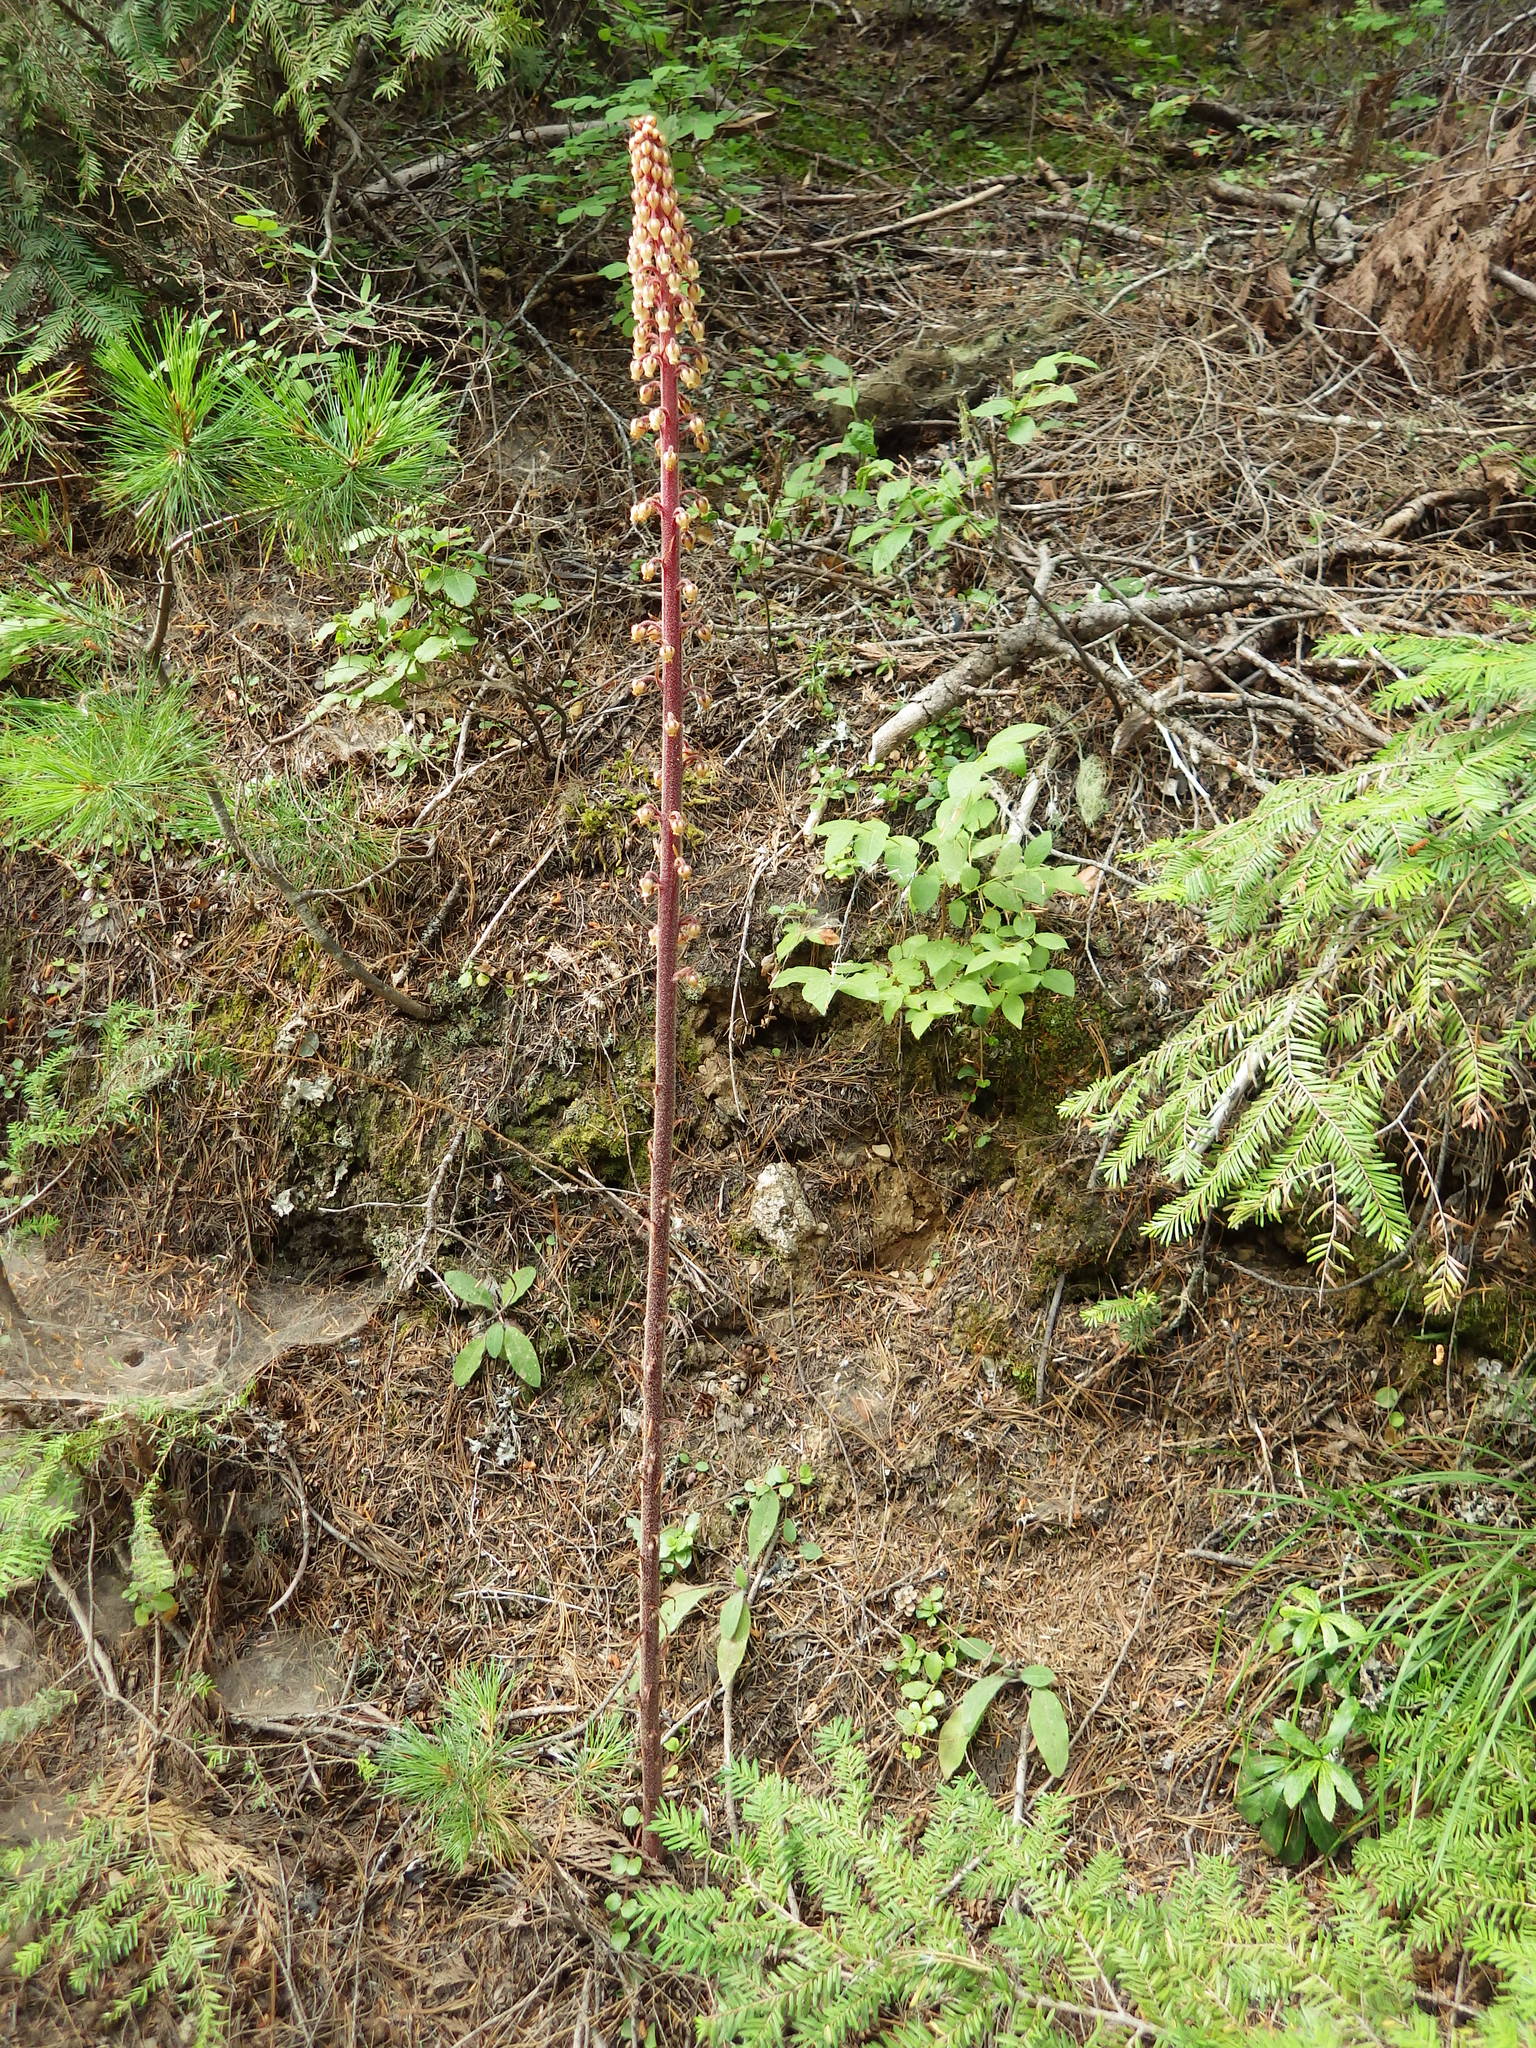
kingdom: Plantae
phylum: Tracheophyta
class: Magnoliopsida
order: Ericales
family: Ericaceae
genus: Pterospora
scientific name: Pterospora andromedea
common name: Giant bird's-nest
